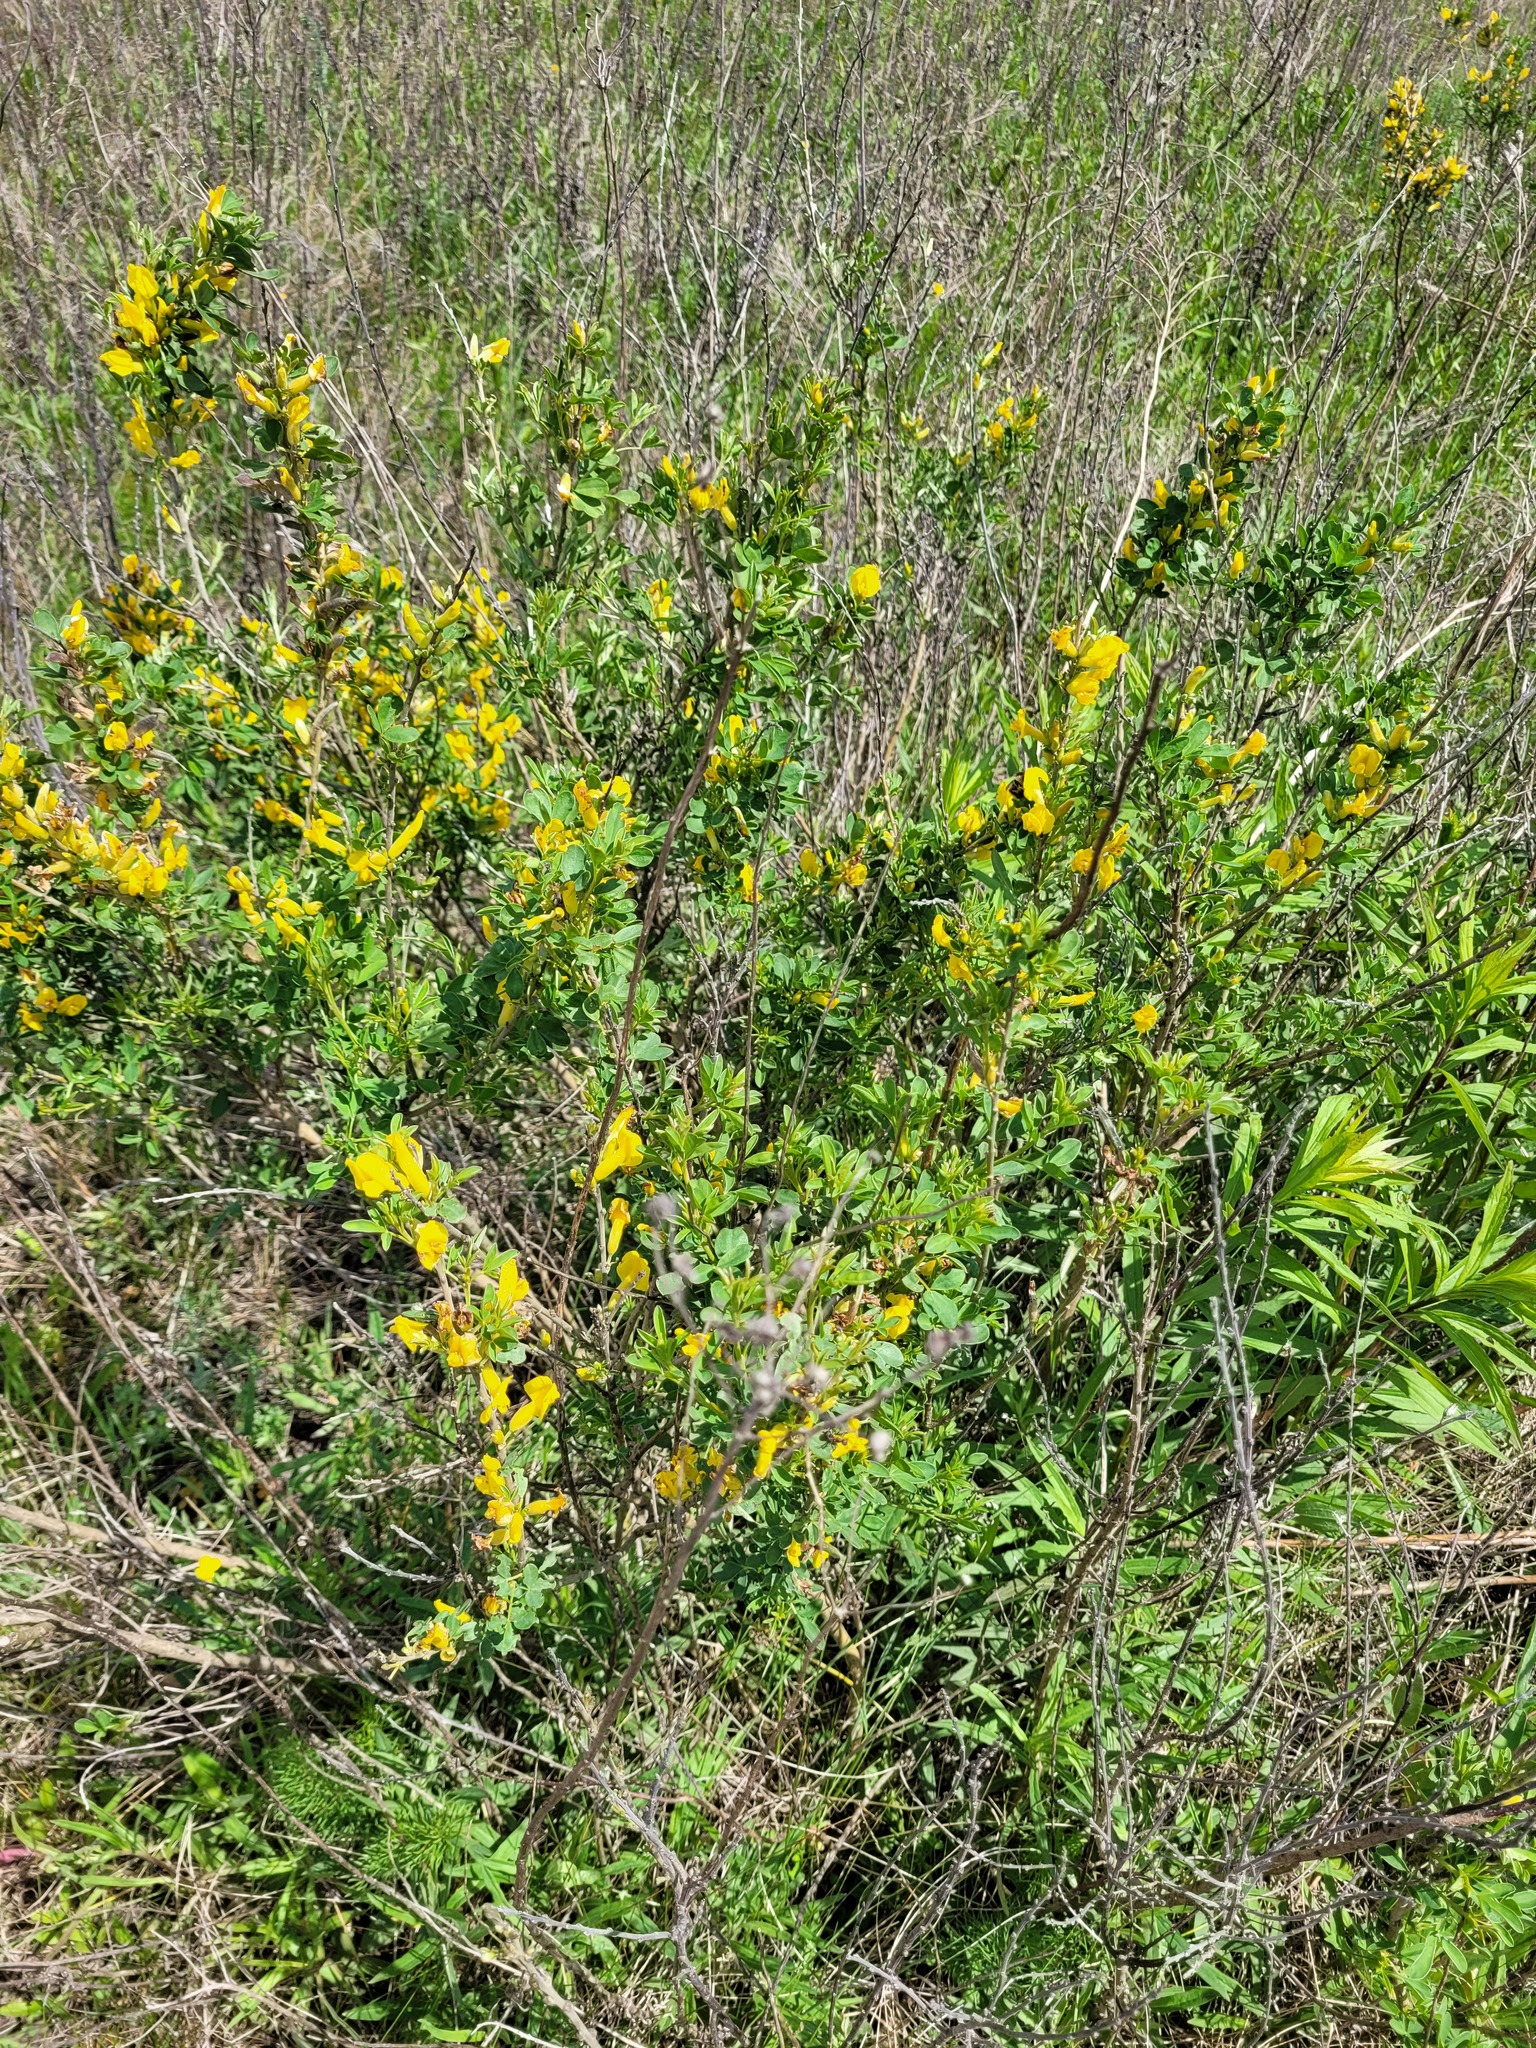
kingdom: Plantae
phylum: Tracheophyta
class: Magnoliopsida
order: Fabales
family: Fabaceae
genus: Chamaecytisus
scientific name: Chamaecytisus ruthenicus
